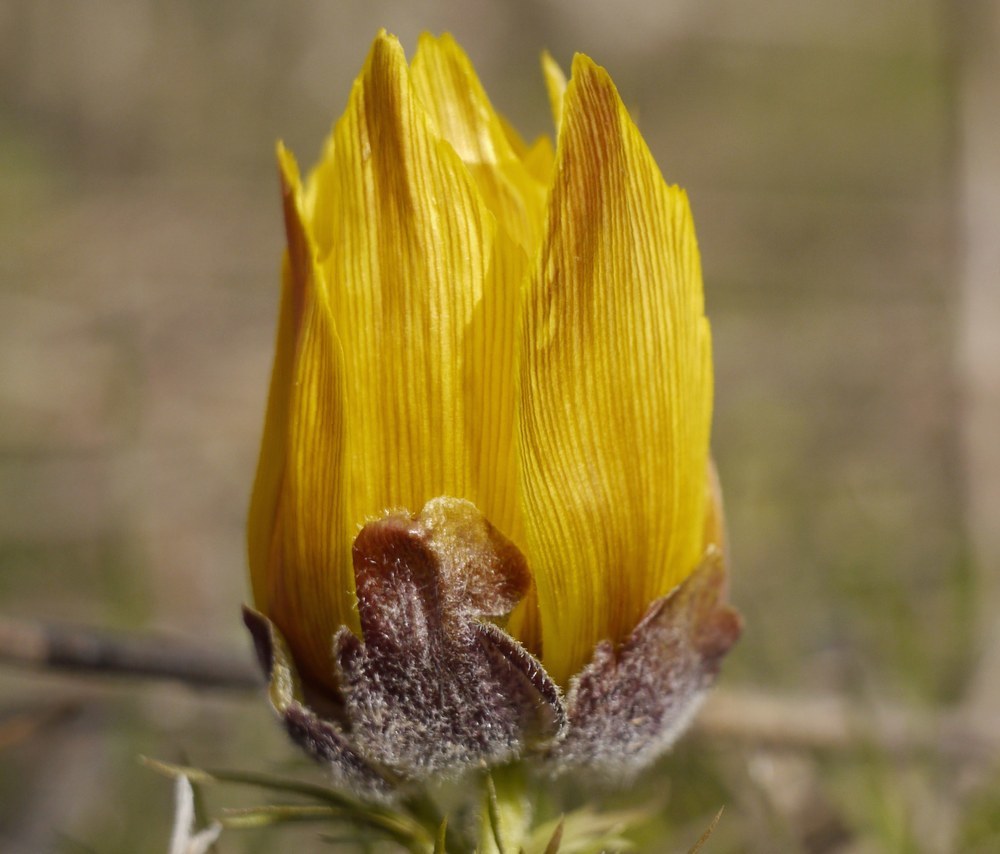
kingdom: Plantae
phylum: Tracheophyta
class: Magnoliopsida
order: Ranunculales
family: Ranunculaceae
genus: Adonis
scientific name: Adonis vernalis
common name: Yellow pheasants-eye
